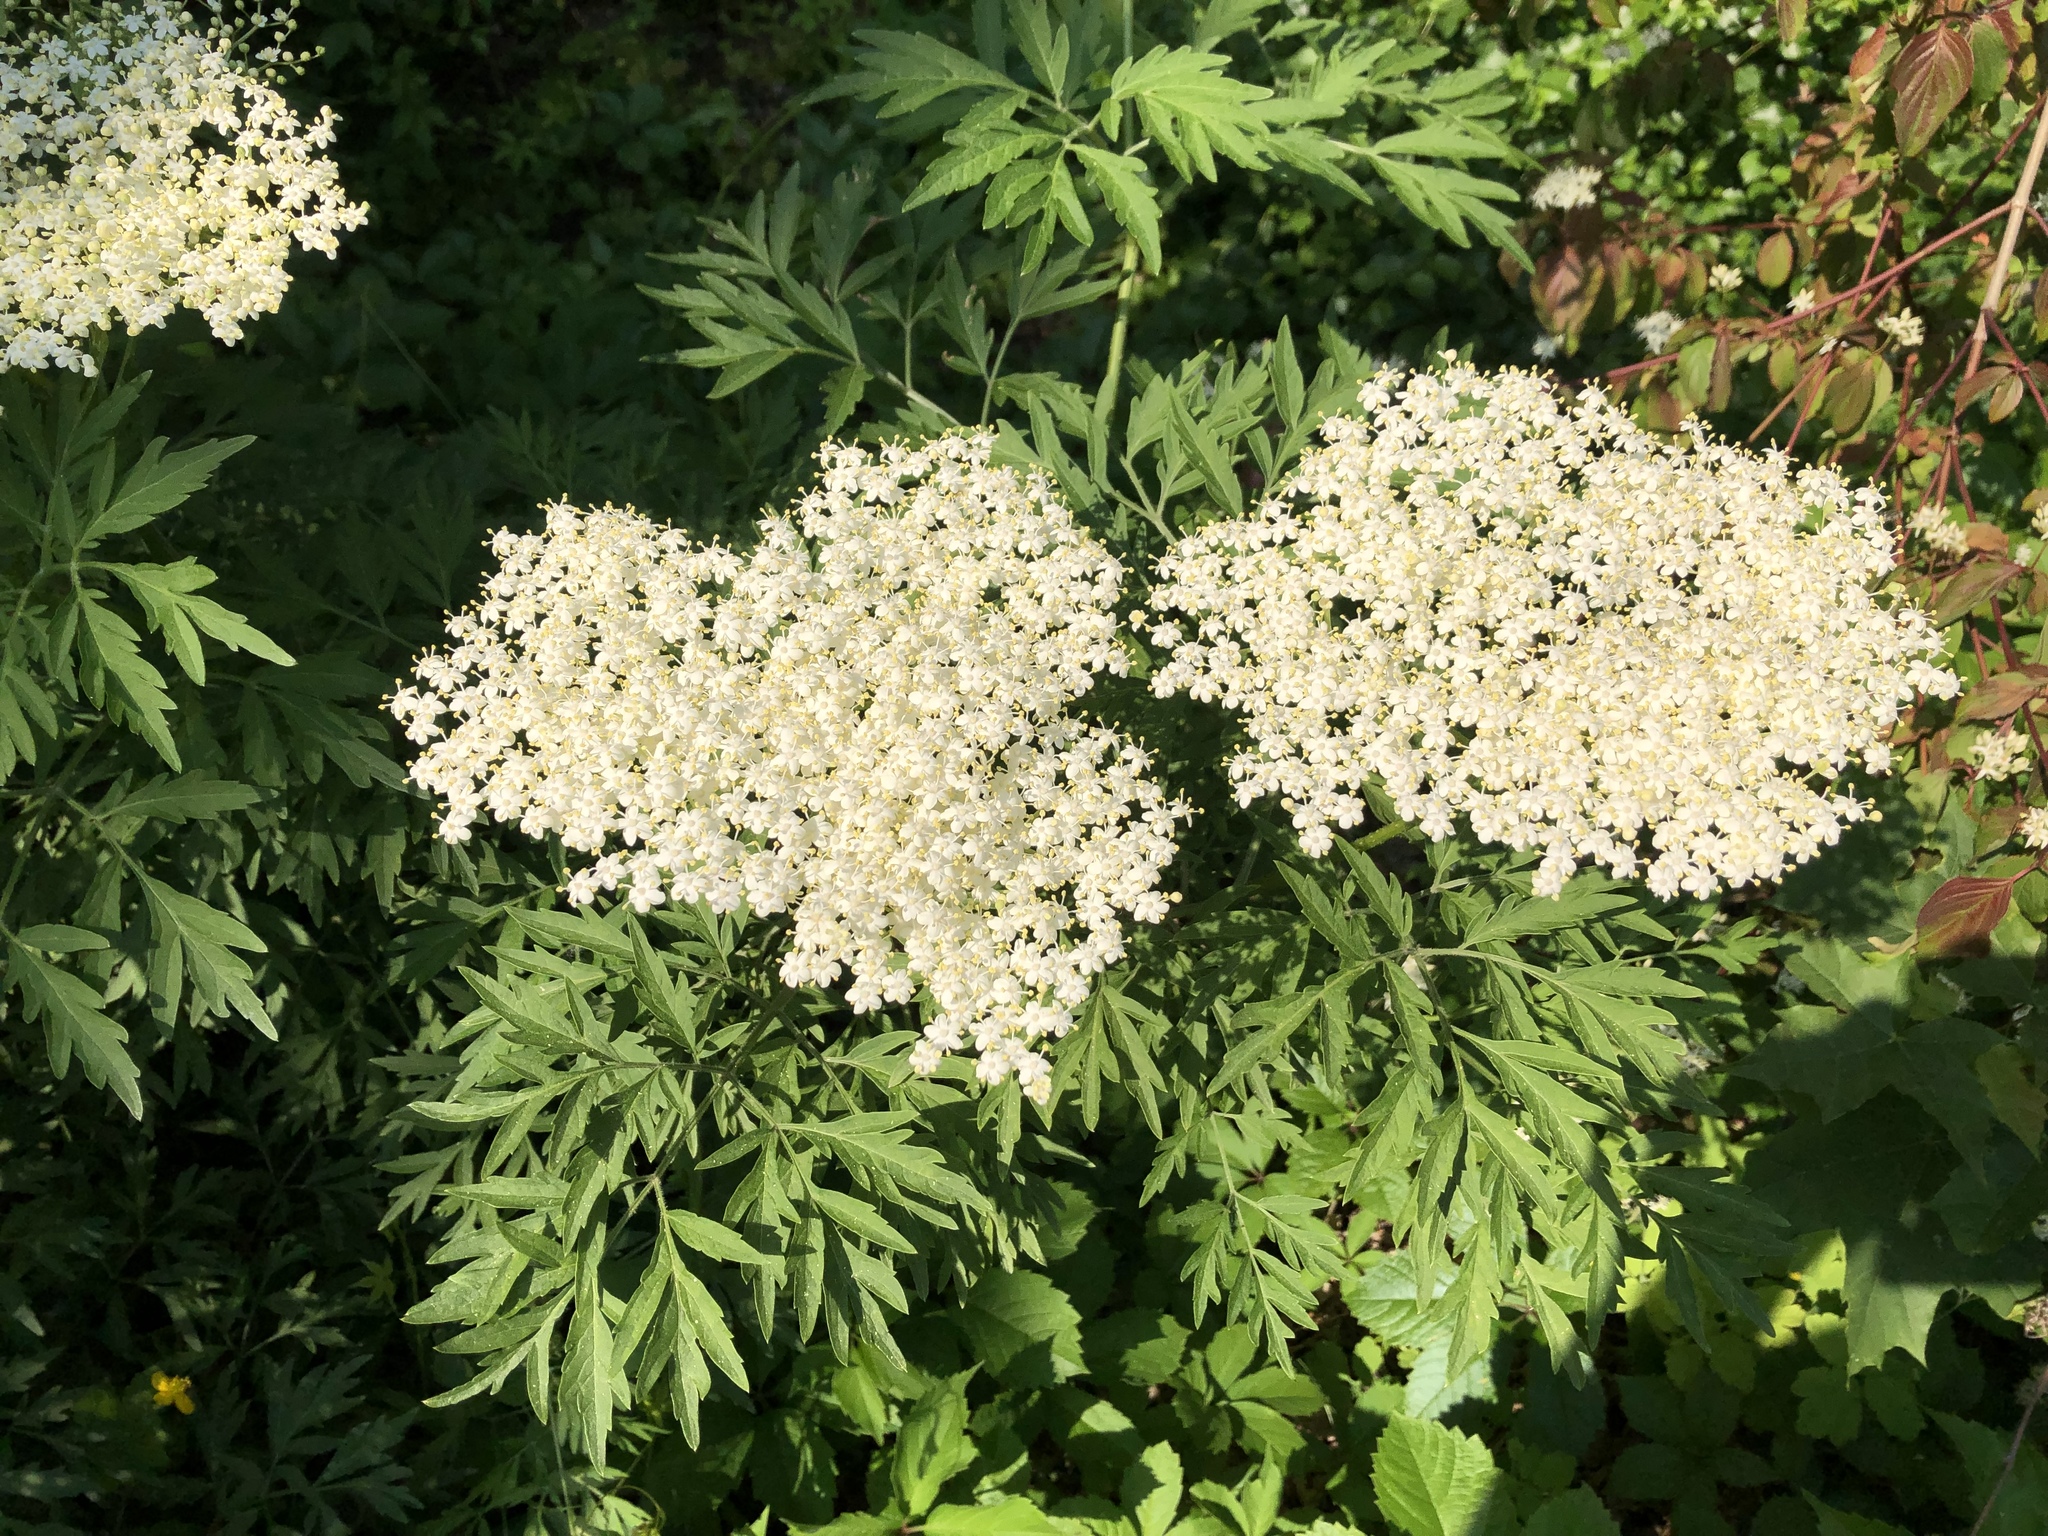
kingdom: Plantae
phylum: Tracheophyta
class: Magnoliopsida
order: Dipsacales
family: Viburnaceae
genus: Sambucus
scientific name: Sambucus nigra
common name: Elder
